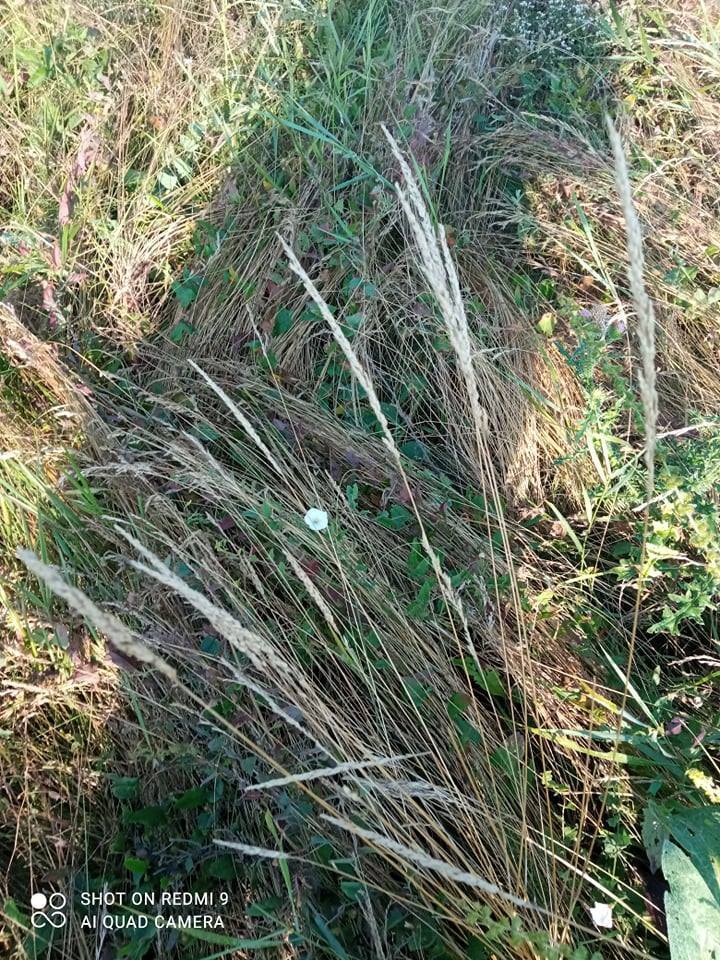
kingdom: Plantae
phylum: Tracheophyta
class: Liliopsida
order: Poales
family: Poaceae
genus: Koeleria
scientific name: Koeleria macrantha
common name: Crested hair-grass
